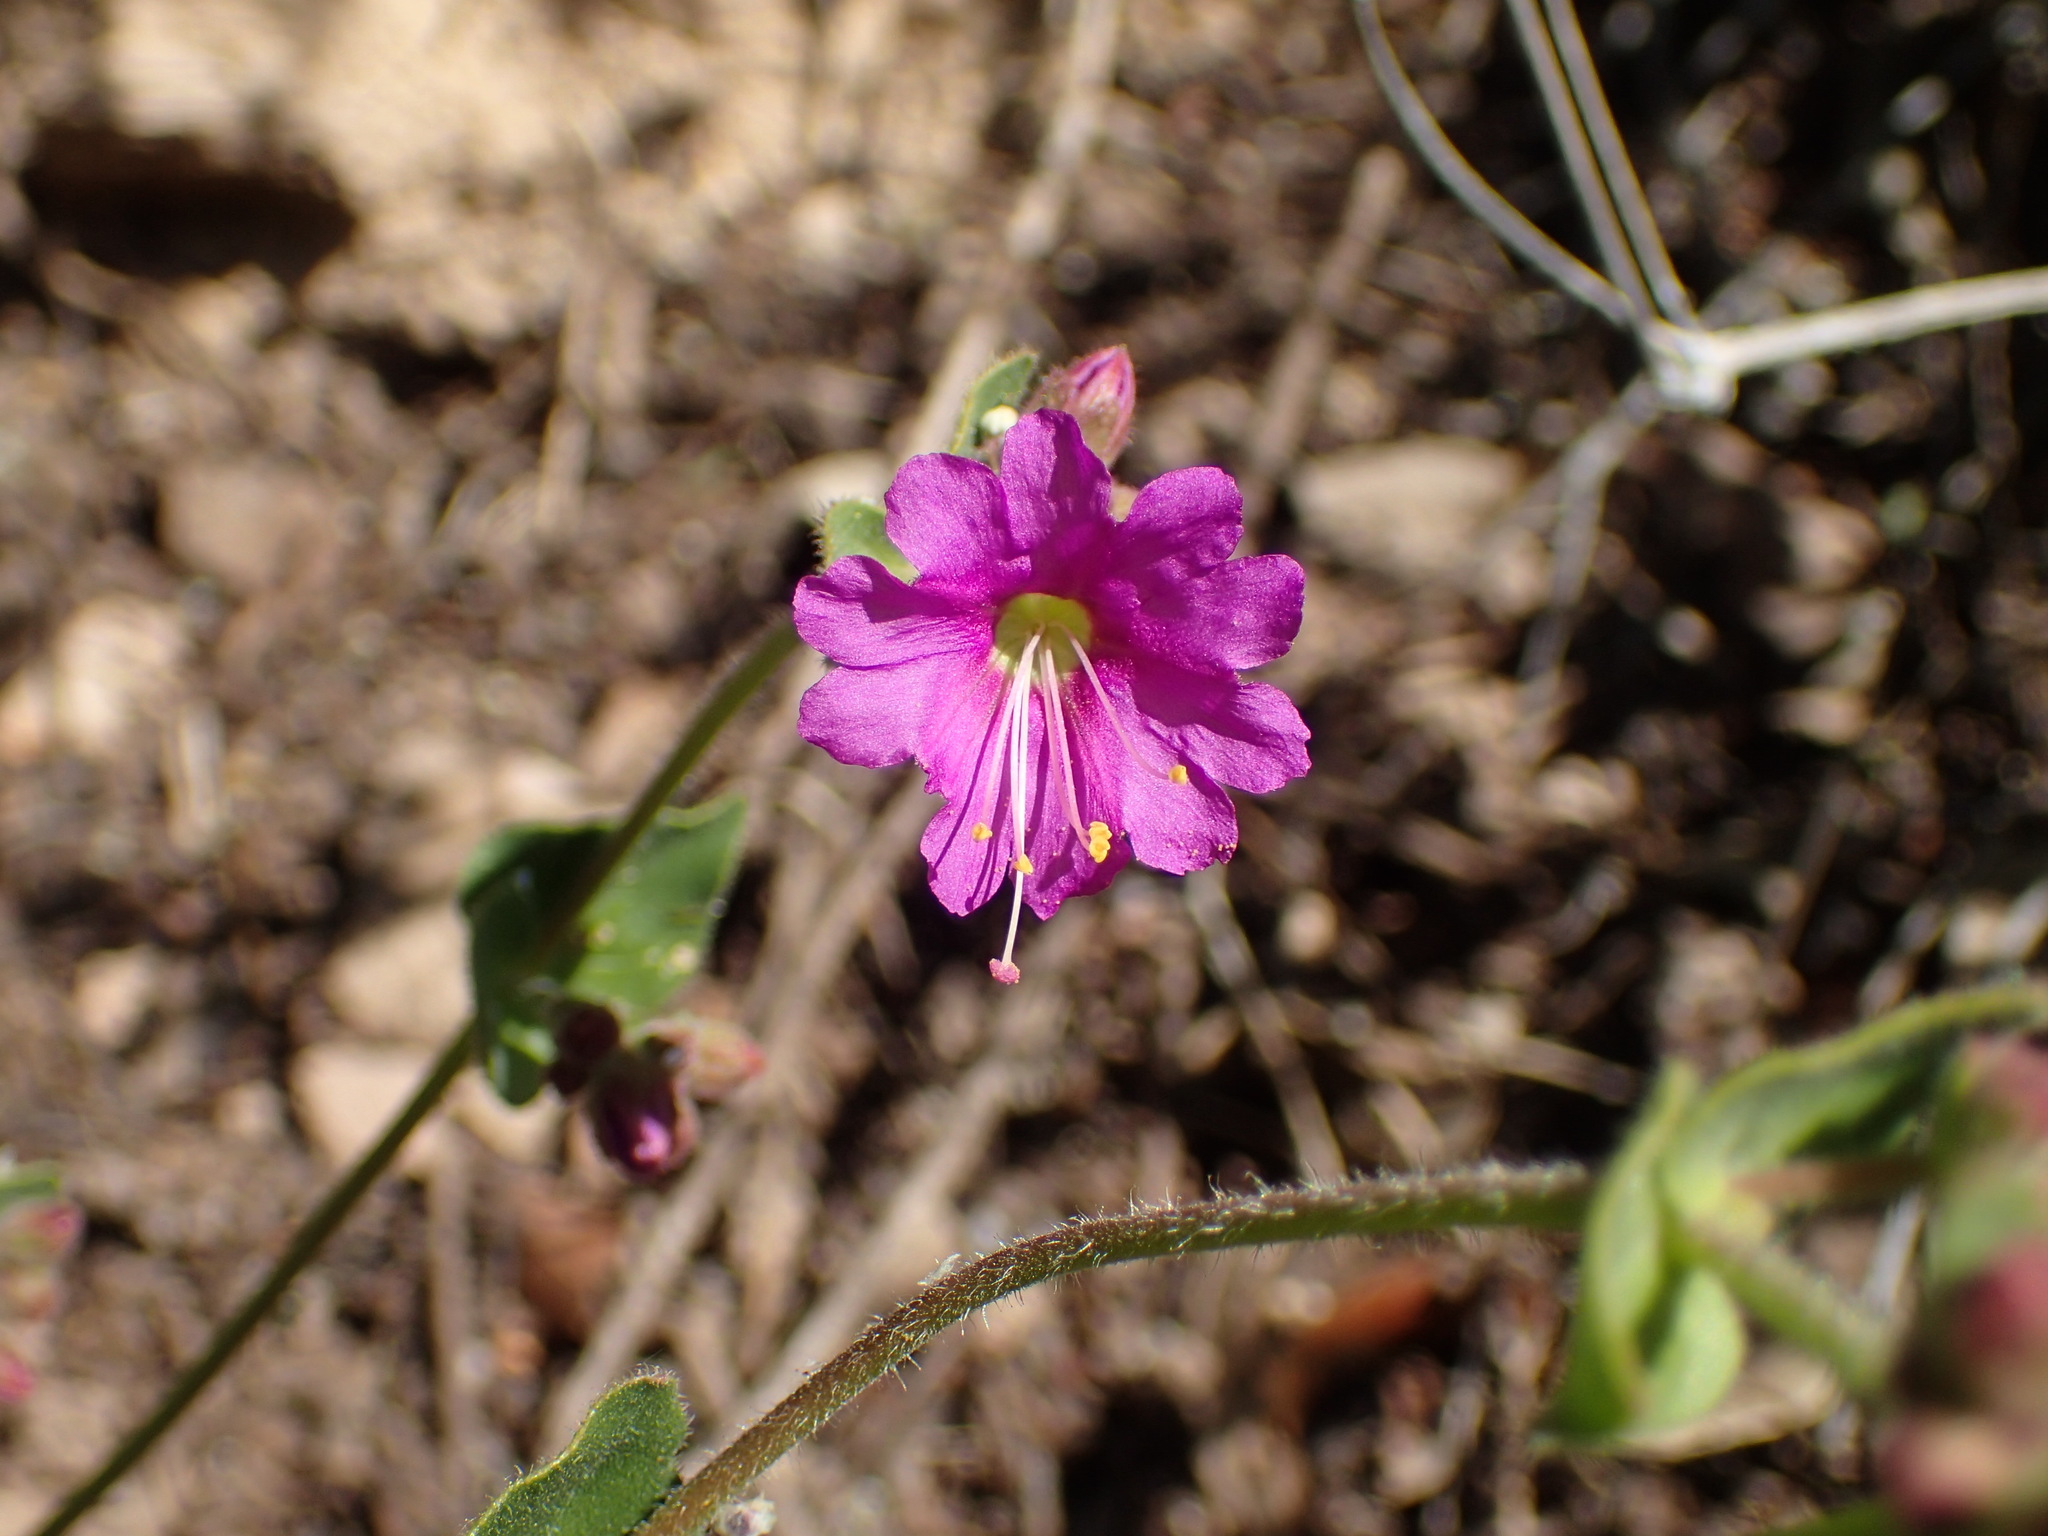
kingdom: Plantae
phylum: Tracheophyta
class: Magnoliopsida
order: Caryophyllales
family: Nyctaginaceae
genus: Mirabilis
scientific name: Mirabilis laevis
